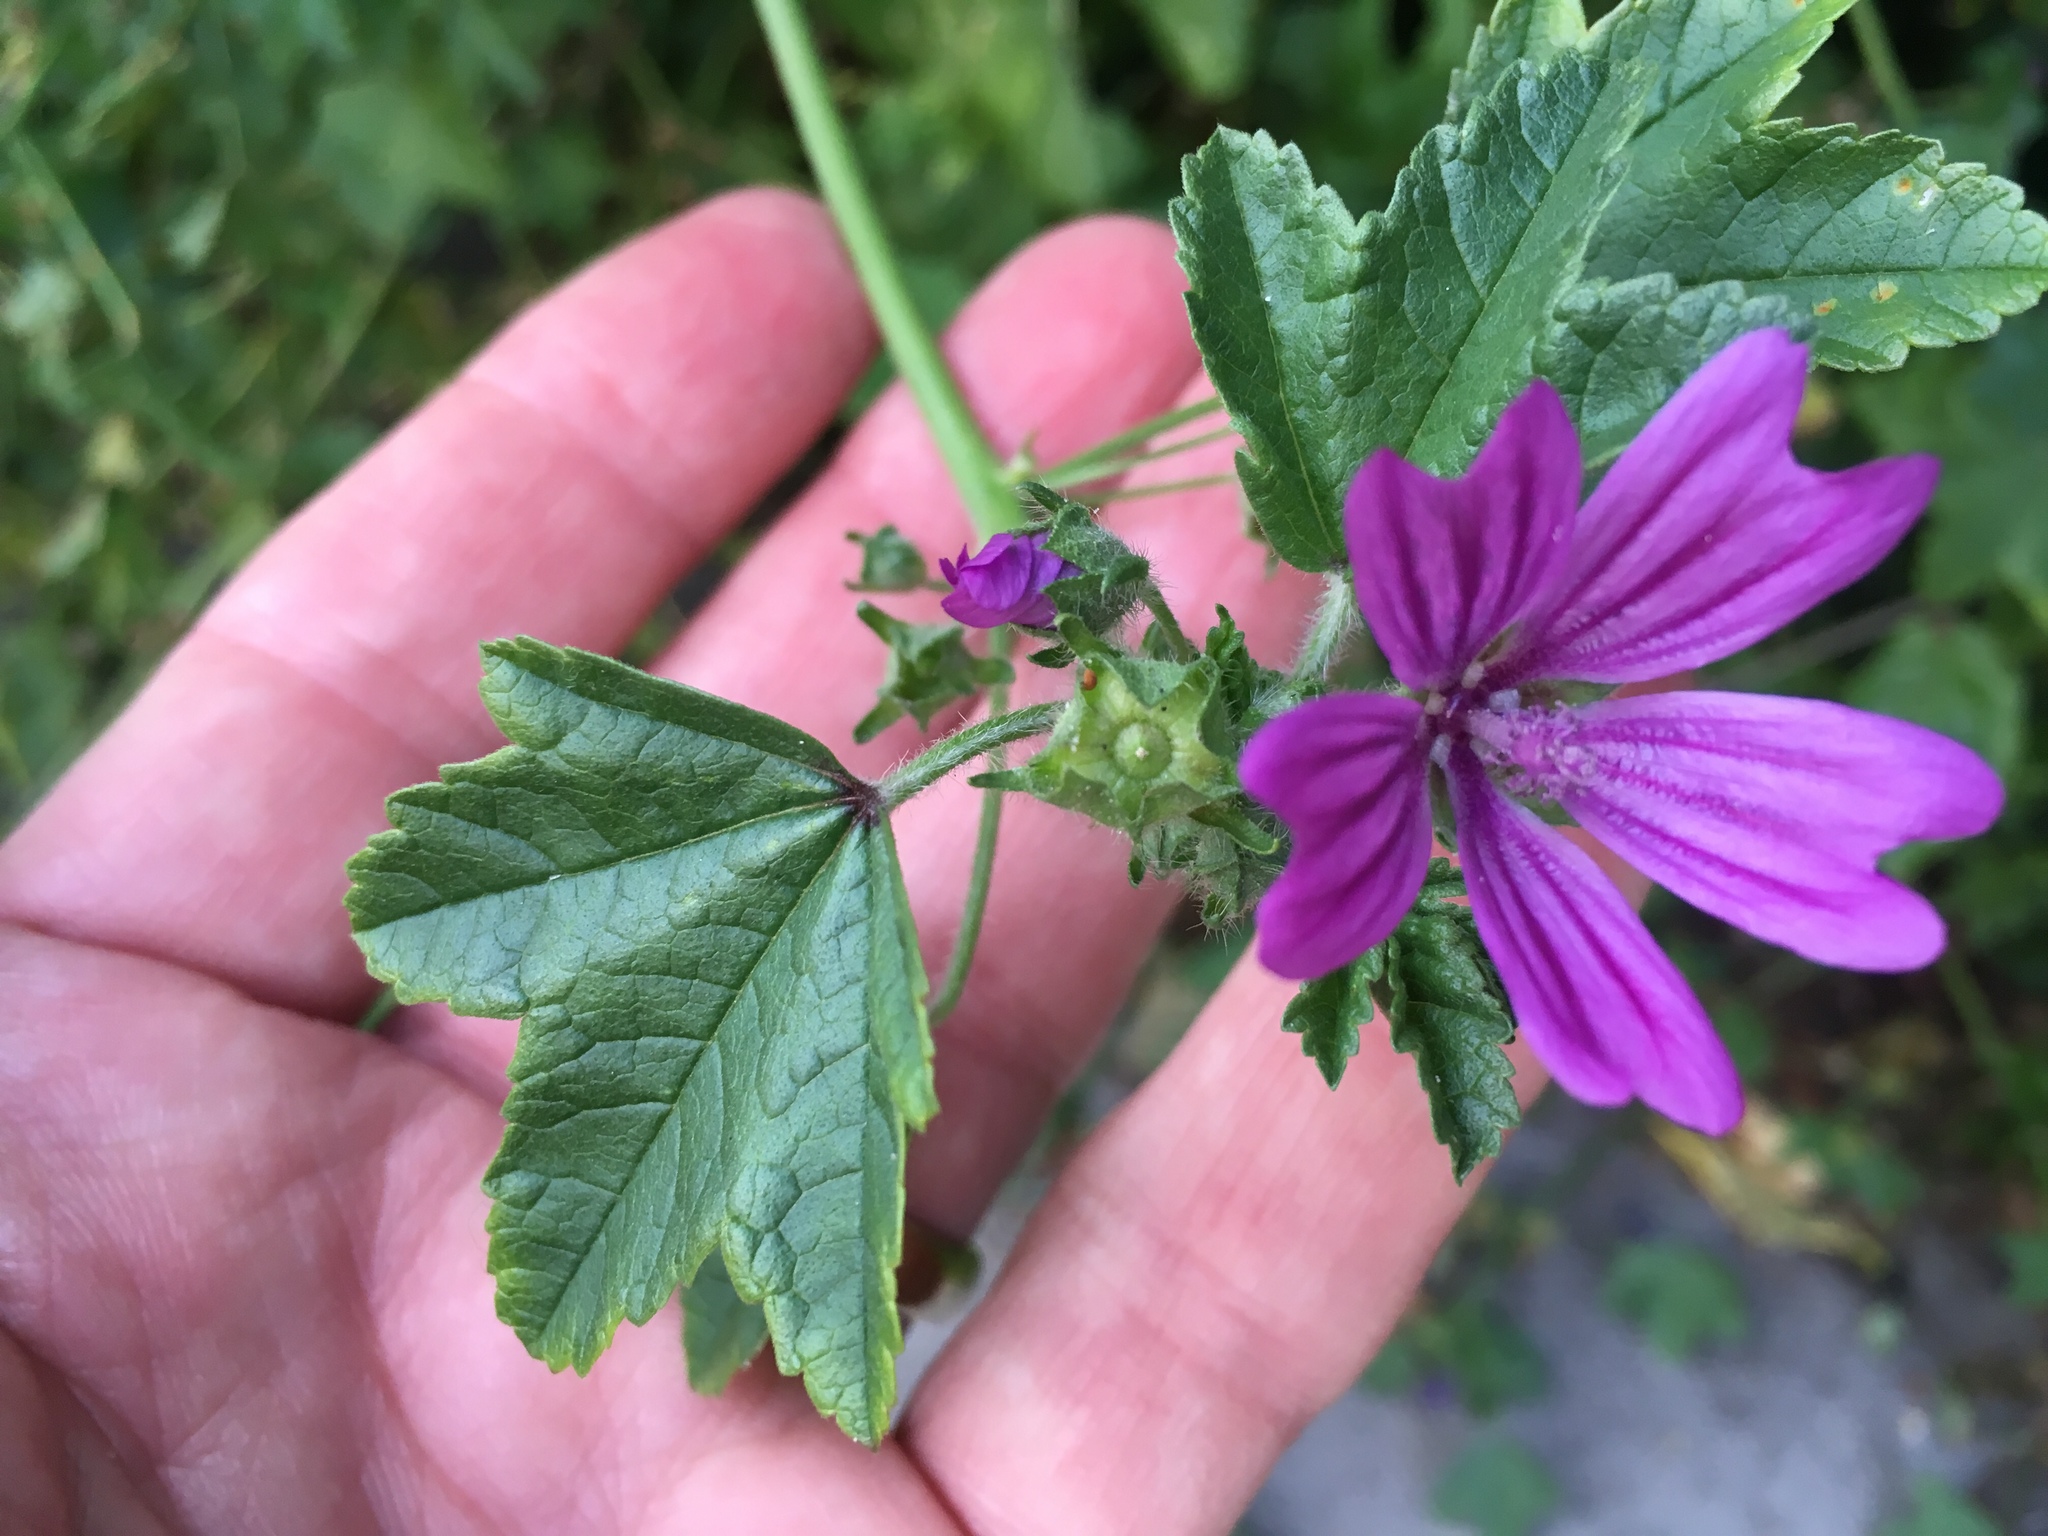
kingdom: Plantae
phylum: Tracheophyta
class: Magnoliopsida
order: Malvales
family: Malvaceae
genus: Malva
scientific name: Malva sylvestris
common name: Common mallow
